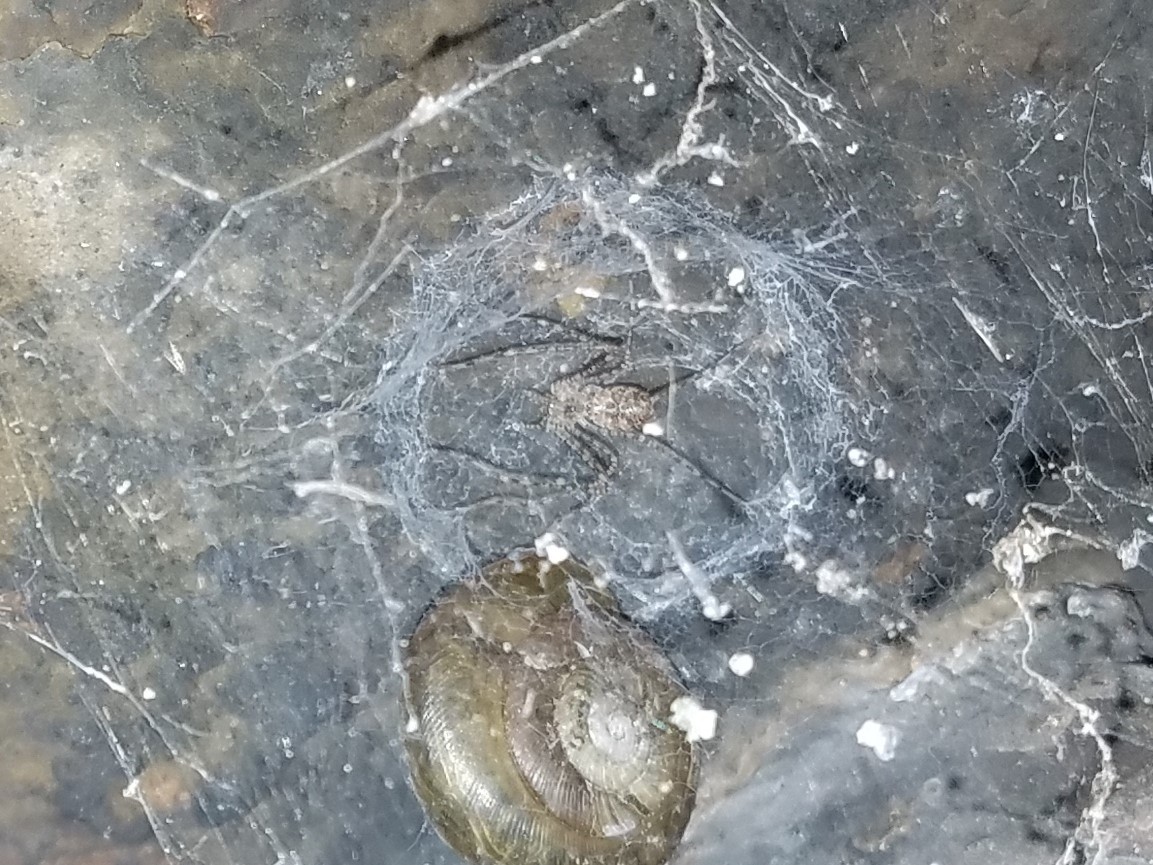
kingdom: Animalia
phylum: Arthropoda
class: Arachnida
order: Araneae
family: Hypochilidae
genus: Hypochilus
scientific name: Hypochilus thorelli
